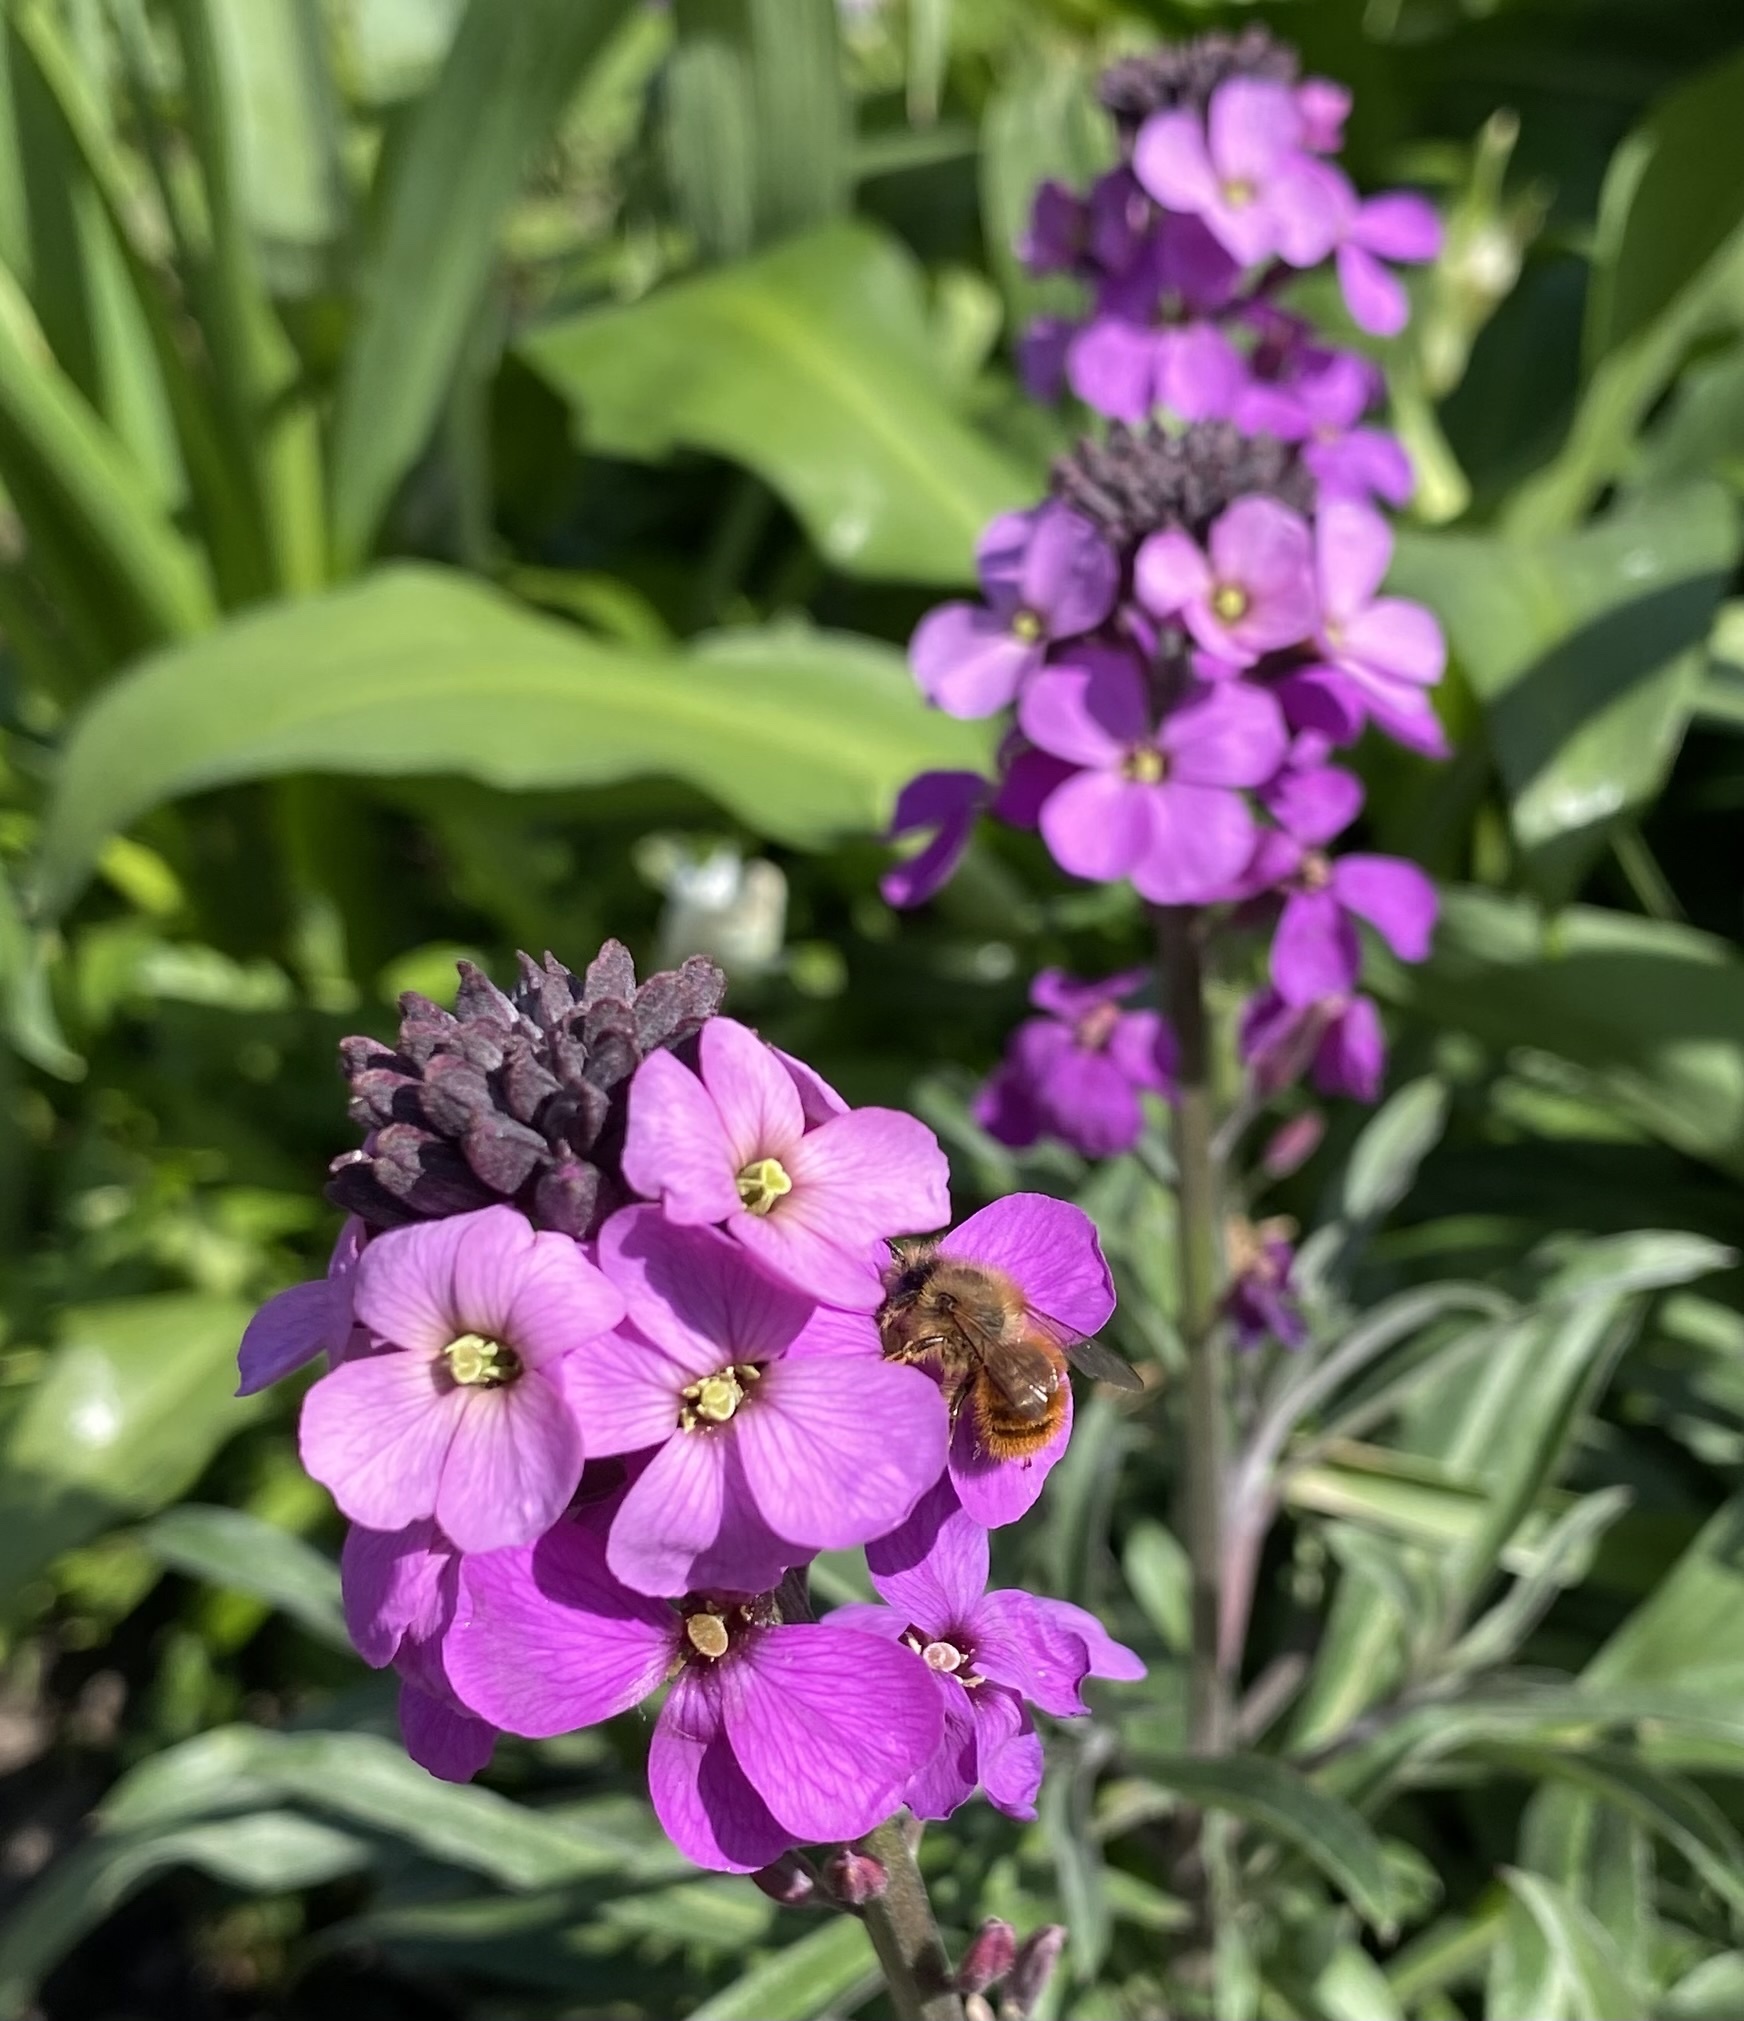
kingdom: Animalia
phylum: Arthropoda
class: Insecta
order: Hymenoptera
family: Megachilidae
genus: Osmia
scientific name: Osmia bicornis
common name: Red mason bee
